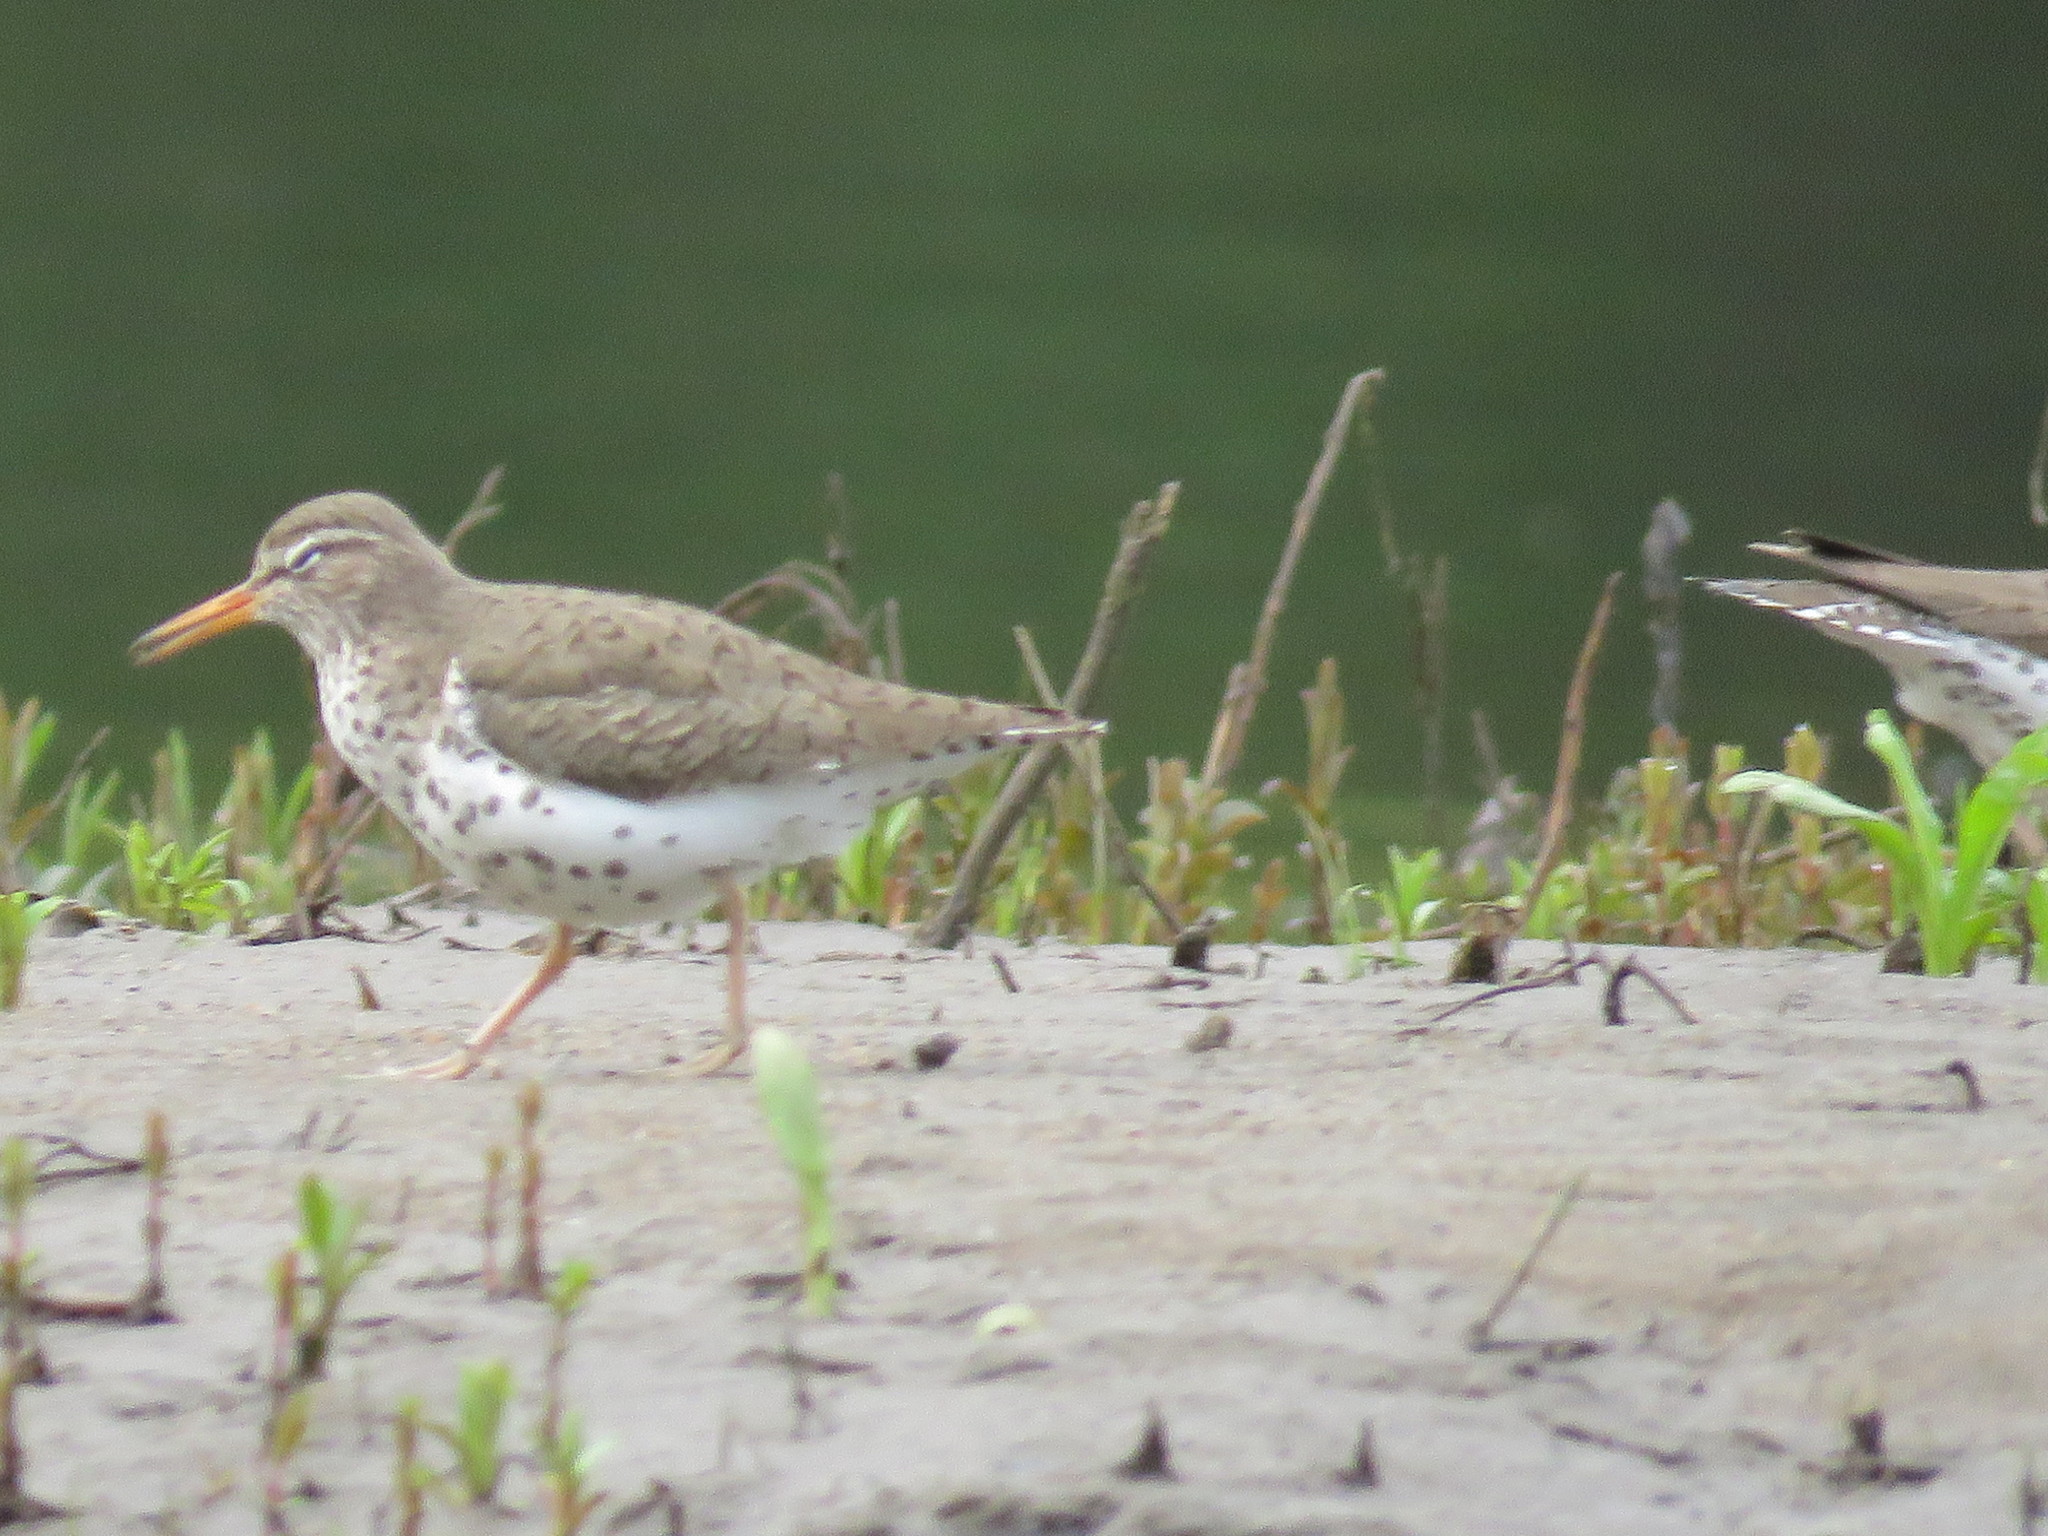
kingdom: Animalia
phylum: Chordata
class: Aves
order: Charadriiformes
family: Scolopacidae
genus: Actitis
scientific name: Actitis macularius
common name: Spotted sandpiper
